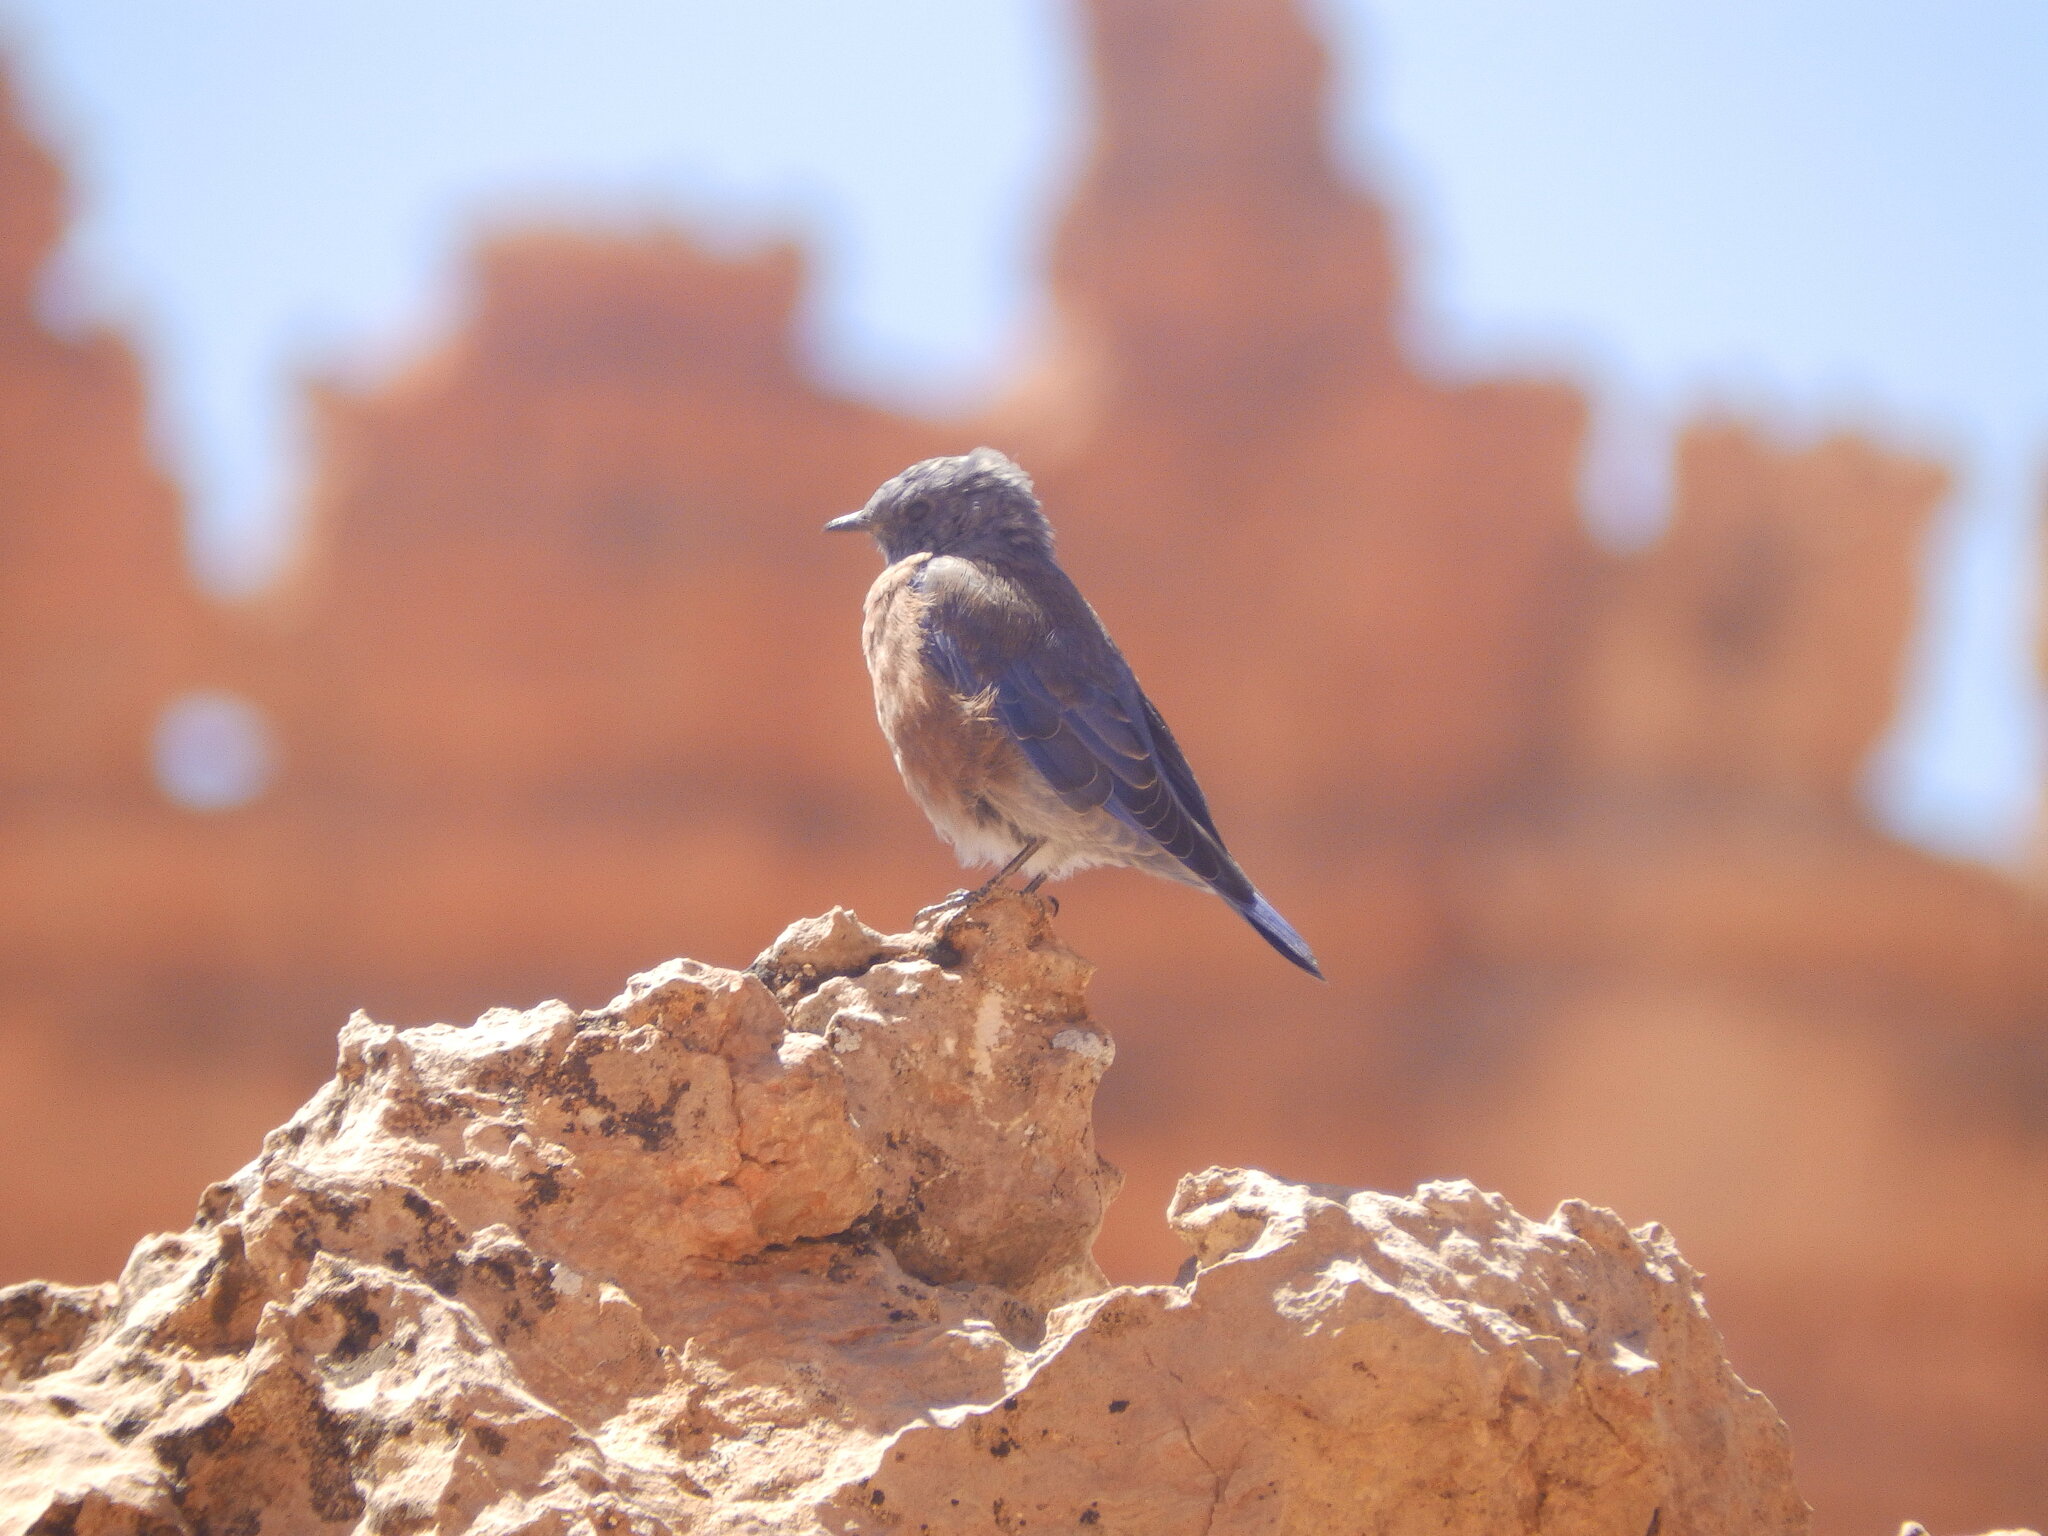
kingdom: Animalia
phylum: Chordata
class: Aves
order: Passeriformes
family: Turdidae
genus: Sialia
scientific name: Sialia mexicana
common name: Western bluebird
